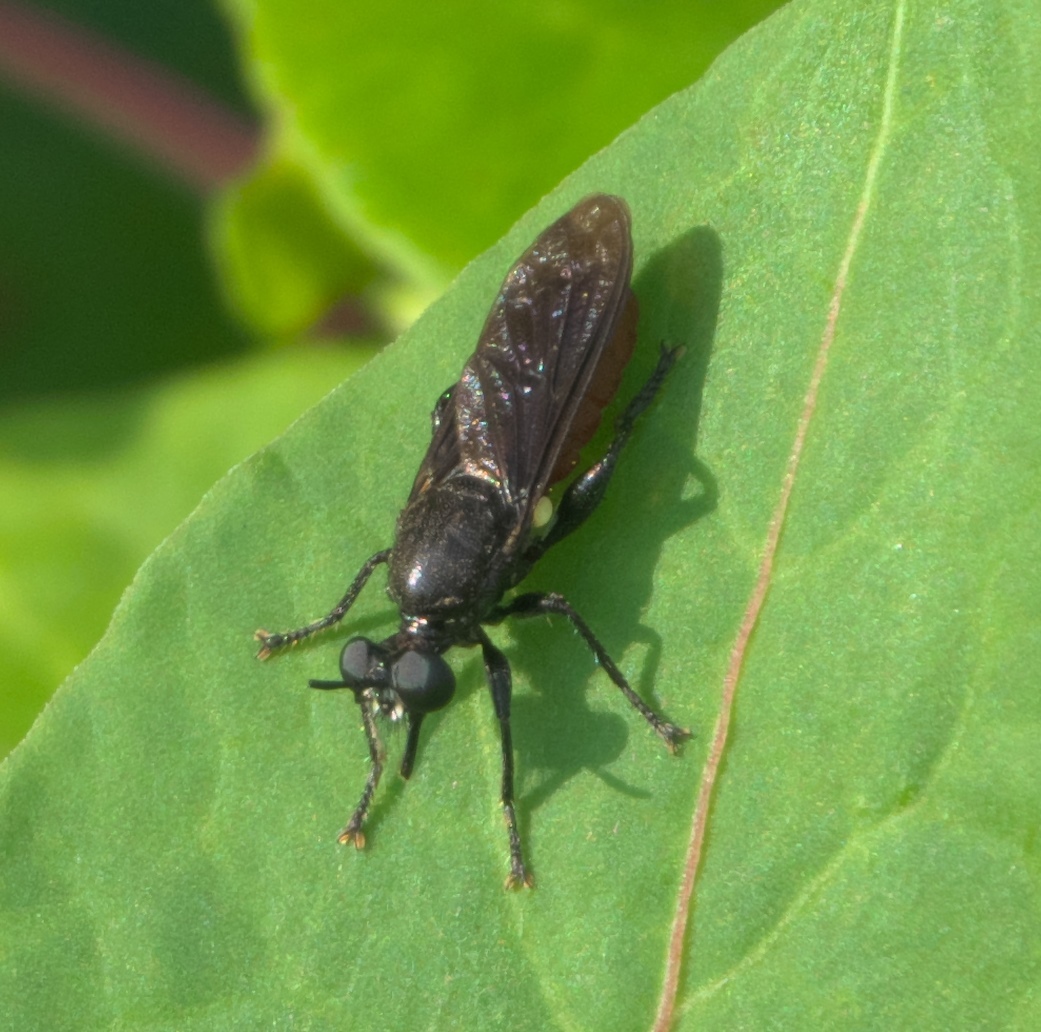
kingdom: Animalia
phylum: Arthropoda
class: Insecta
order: Diptera
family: Asilidae
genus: Lampria
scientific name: Lampria bicolor
